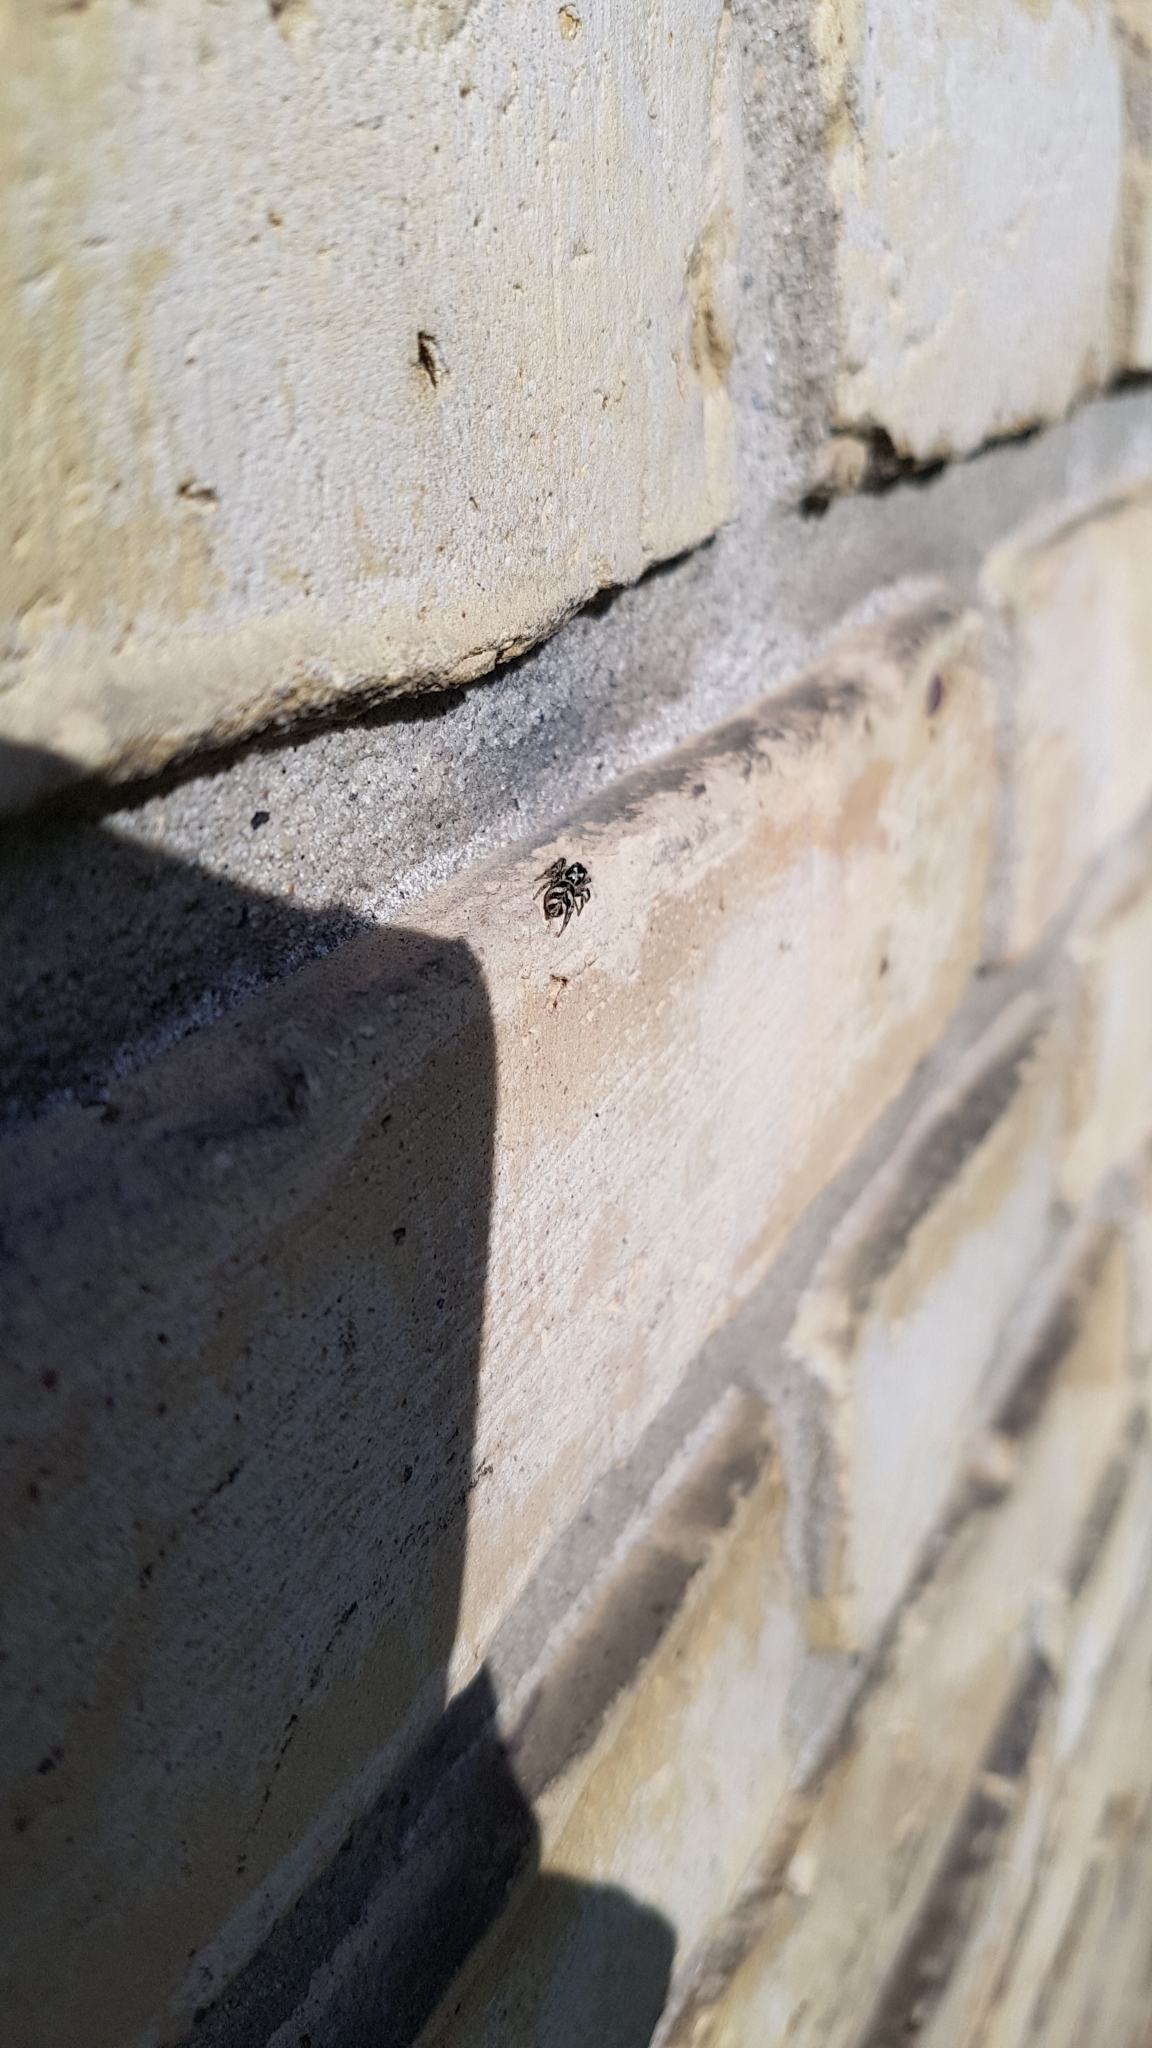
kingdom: Animalia
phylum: Arthropoda
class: Arachnida
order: Araneae
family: Salticidae
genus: Salticus
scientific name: Salticus scenicus
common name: Zebra jumper
